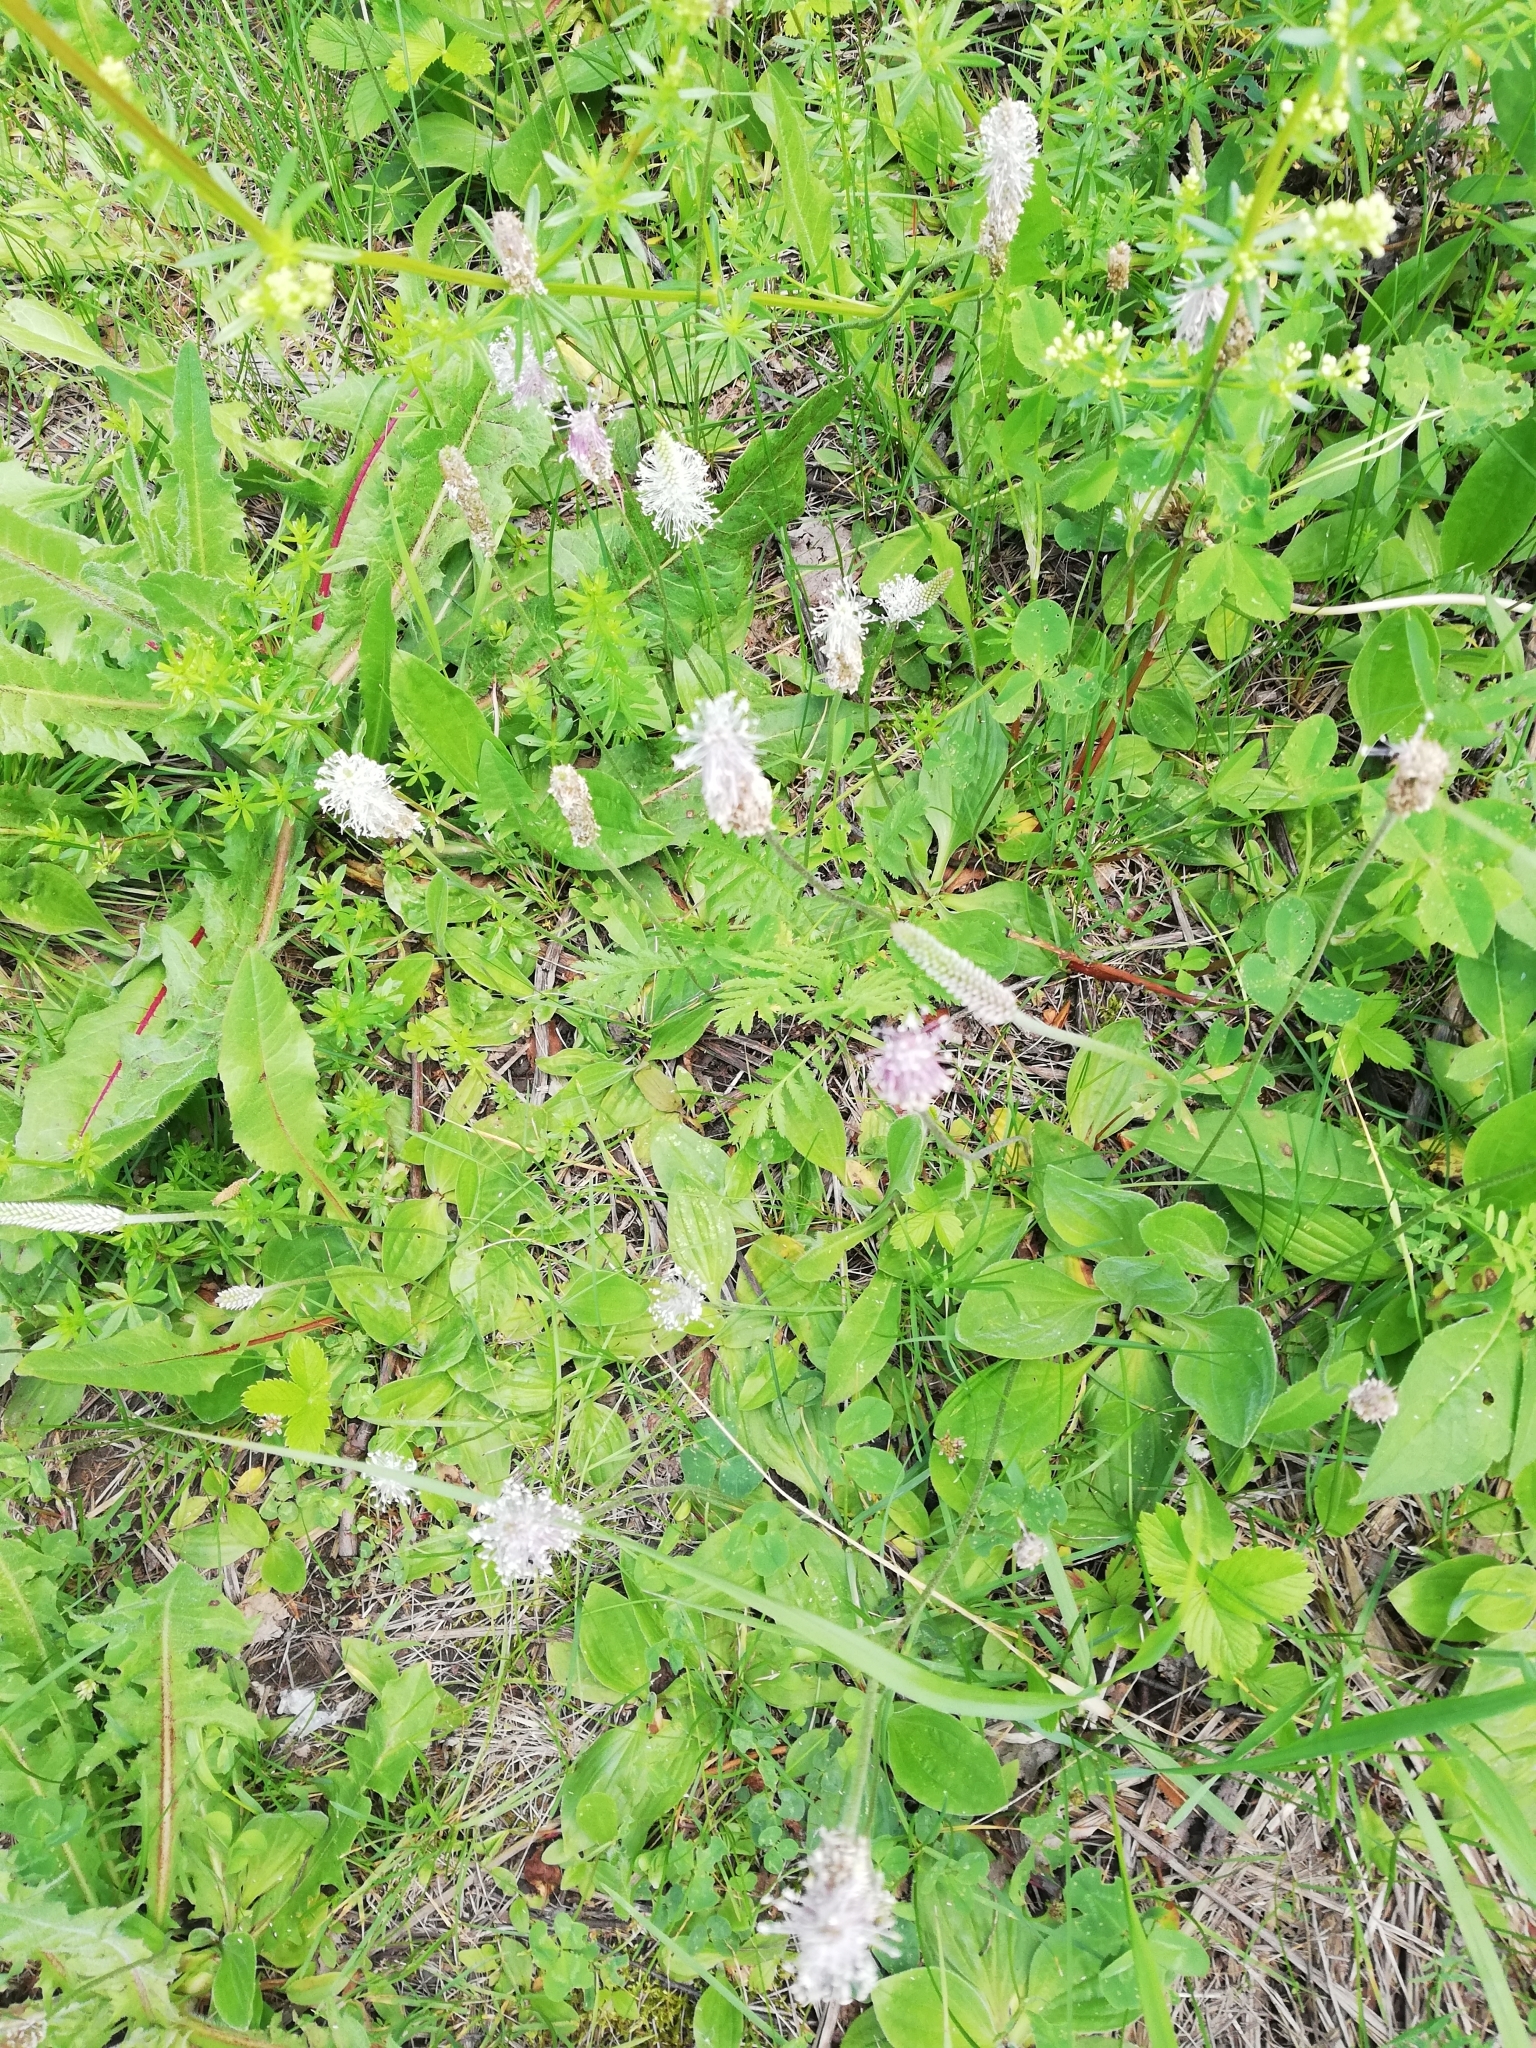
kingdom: Plantae
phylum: Tracheophyta
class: Magnoliopsida
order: Lamiales
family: Plantaginaceae
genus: Plantago
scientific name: Plantago media
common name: Hoary plantain
